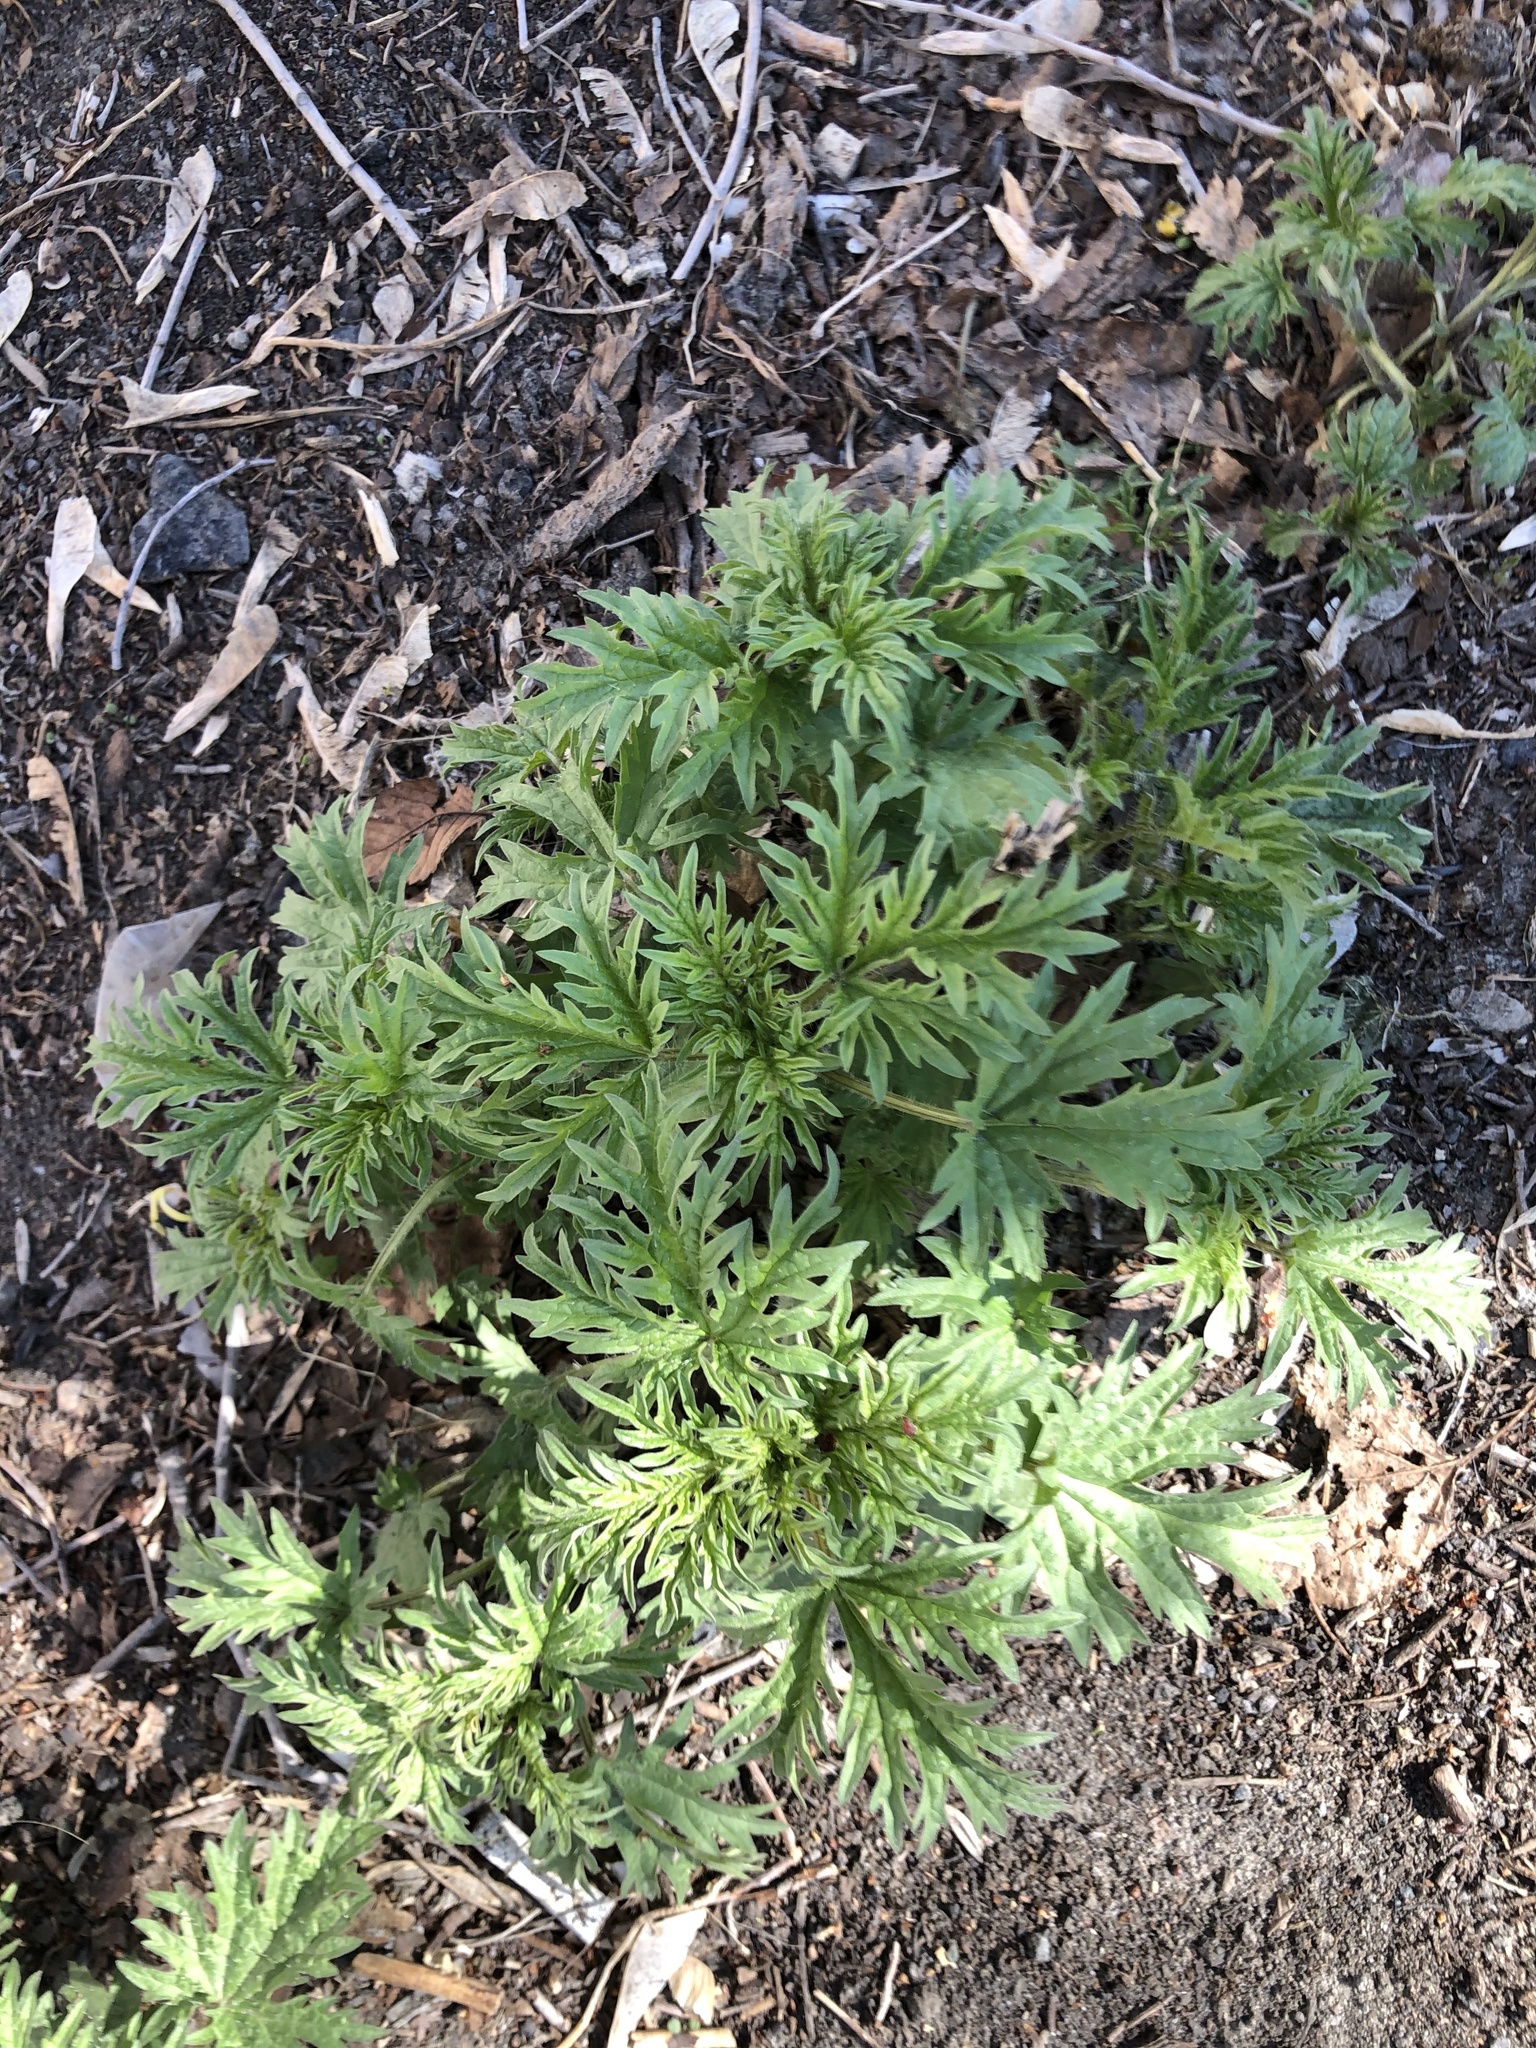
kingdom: Plantae
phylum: Tracheophyta
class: Magnoliopsida
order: Rosales
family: Urticaceae
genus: Urtica
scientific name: Urtica cannabina
